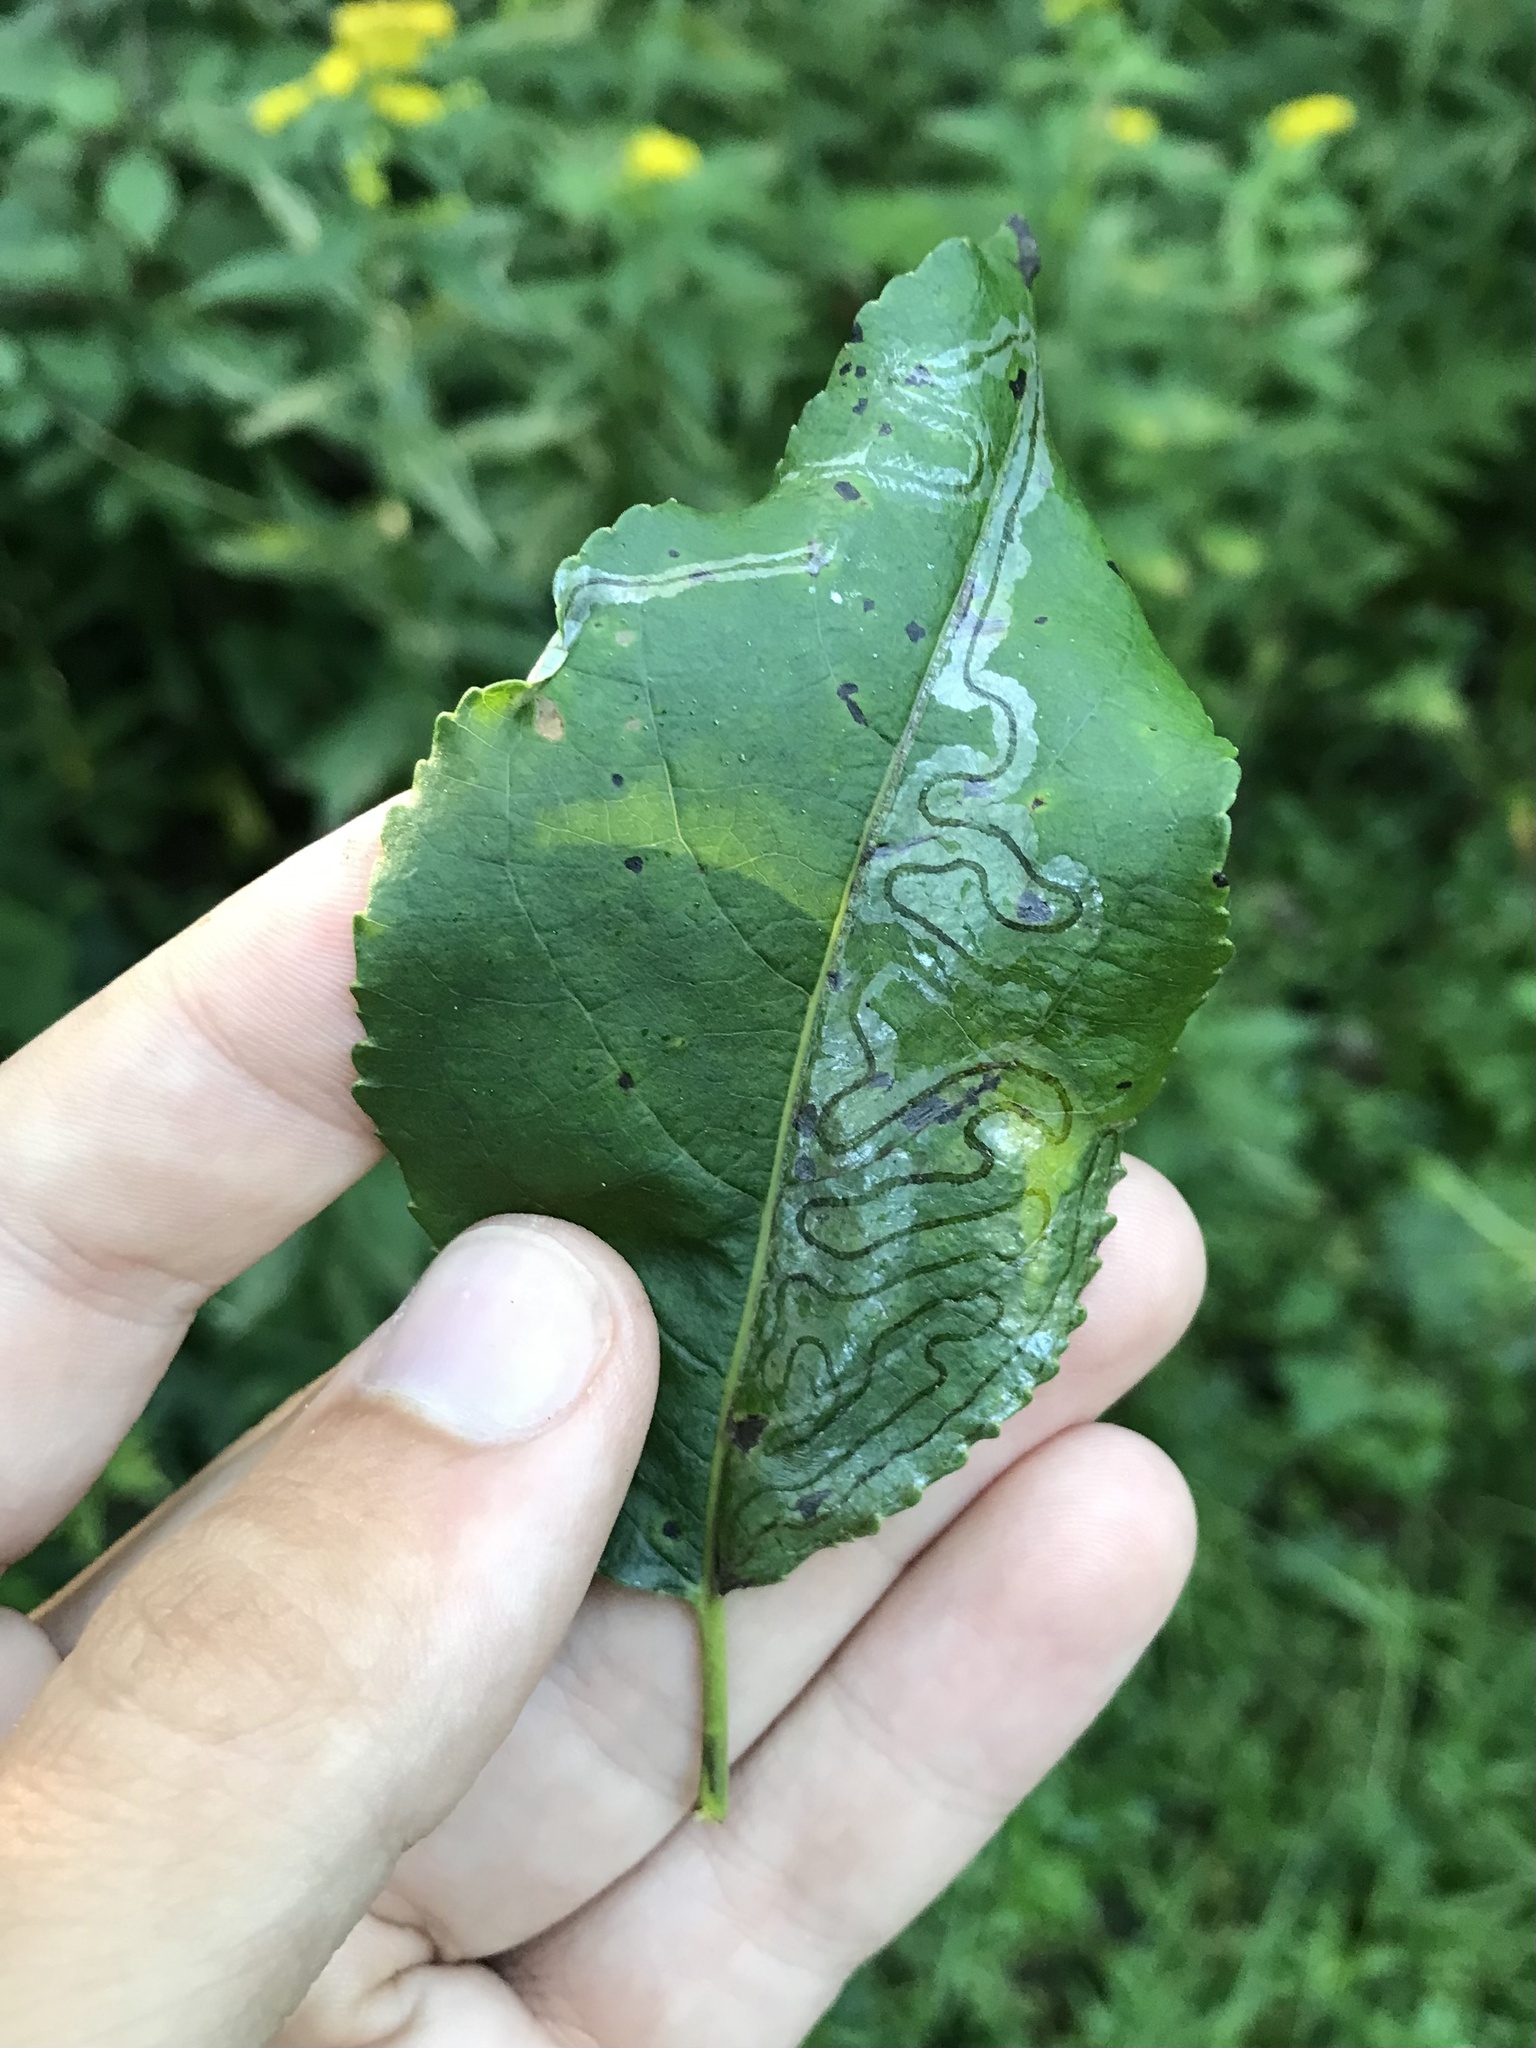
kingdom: Animalia
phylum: Arthropoda
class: Insecta
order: Lepidoptera
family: Gracillariidae
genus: Phyllocnistis
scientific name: Phyllocnistis populiella
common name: Aspen serpentine leafminer moth
